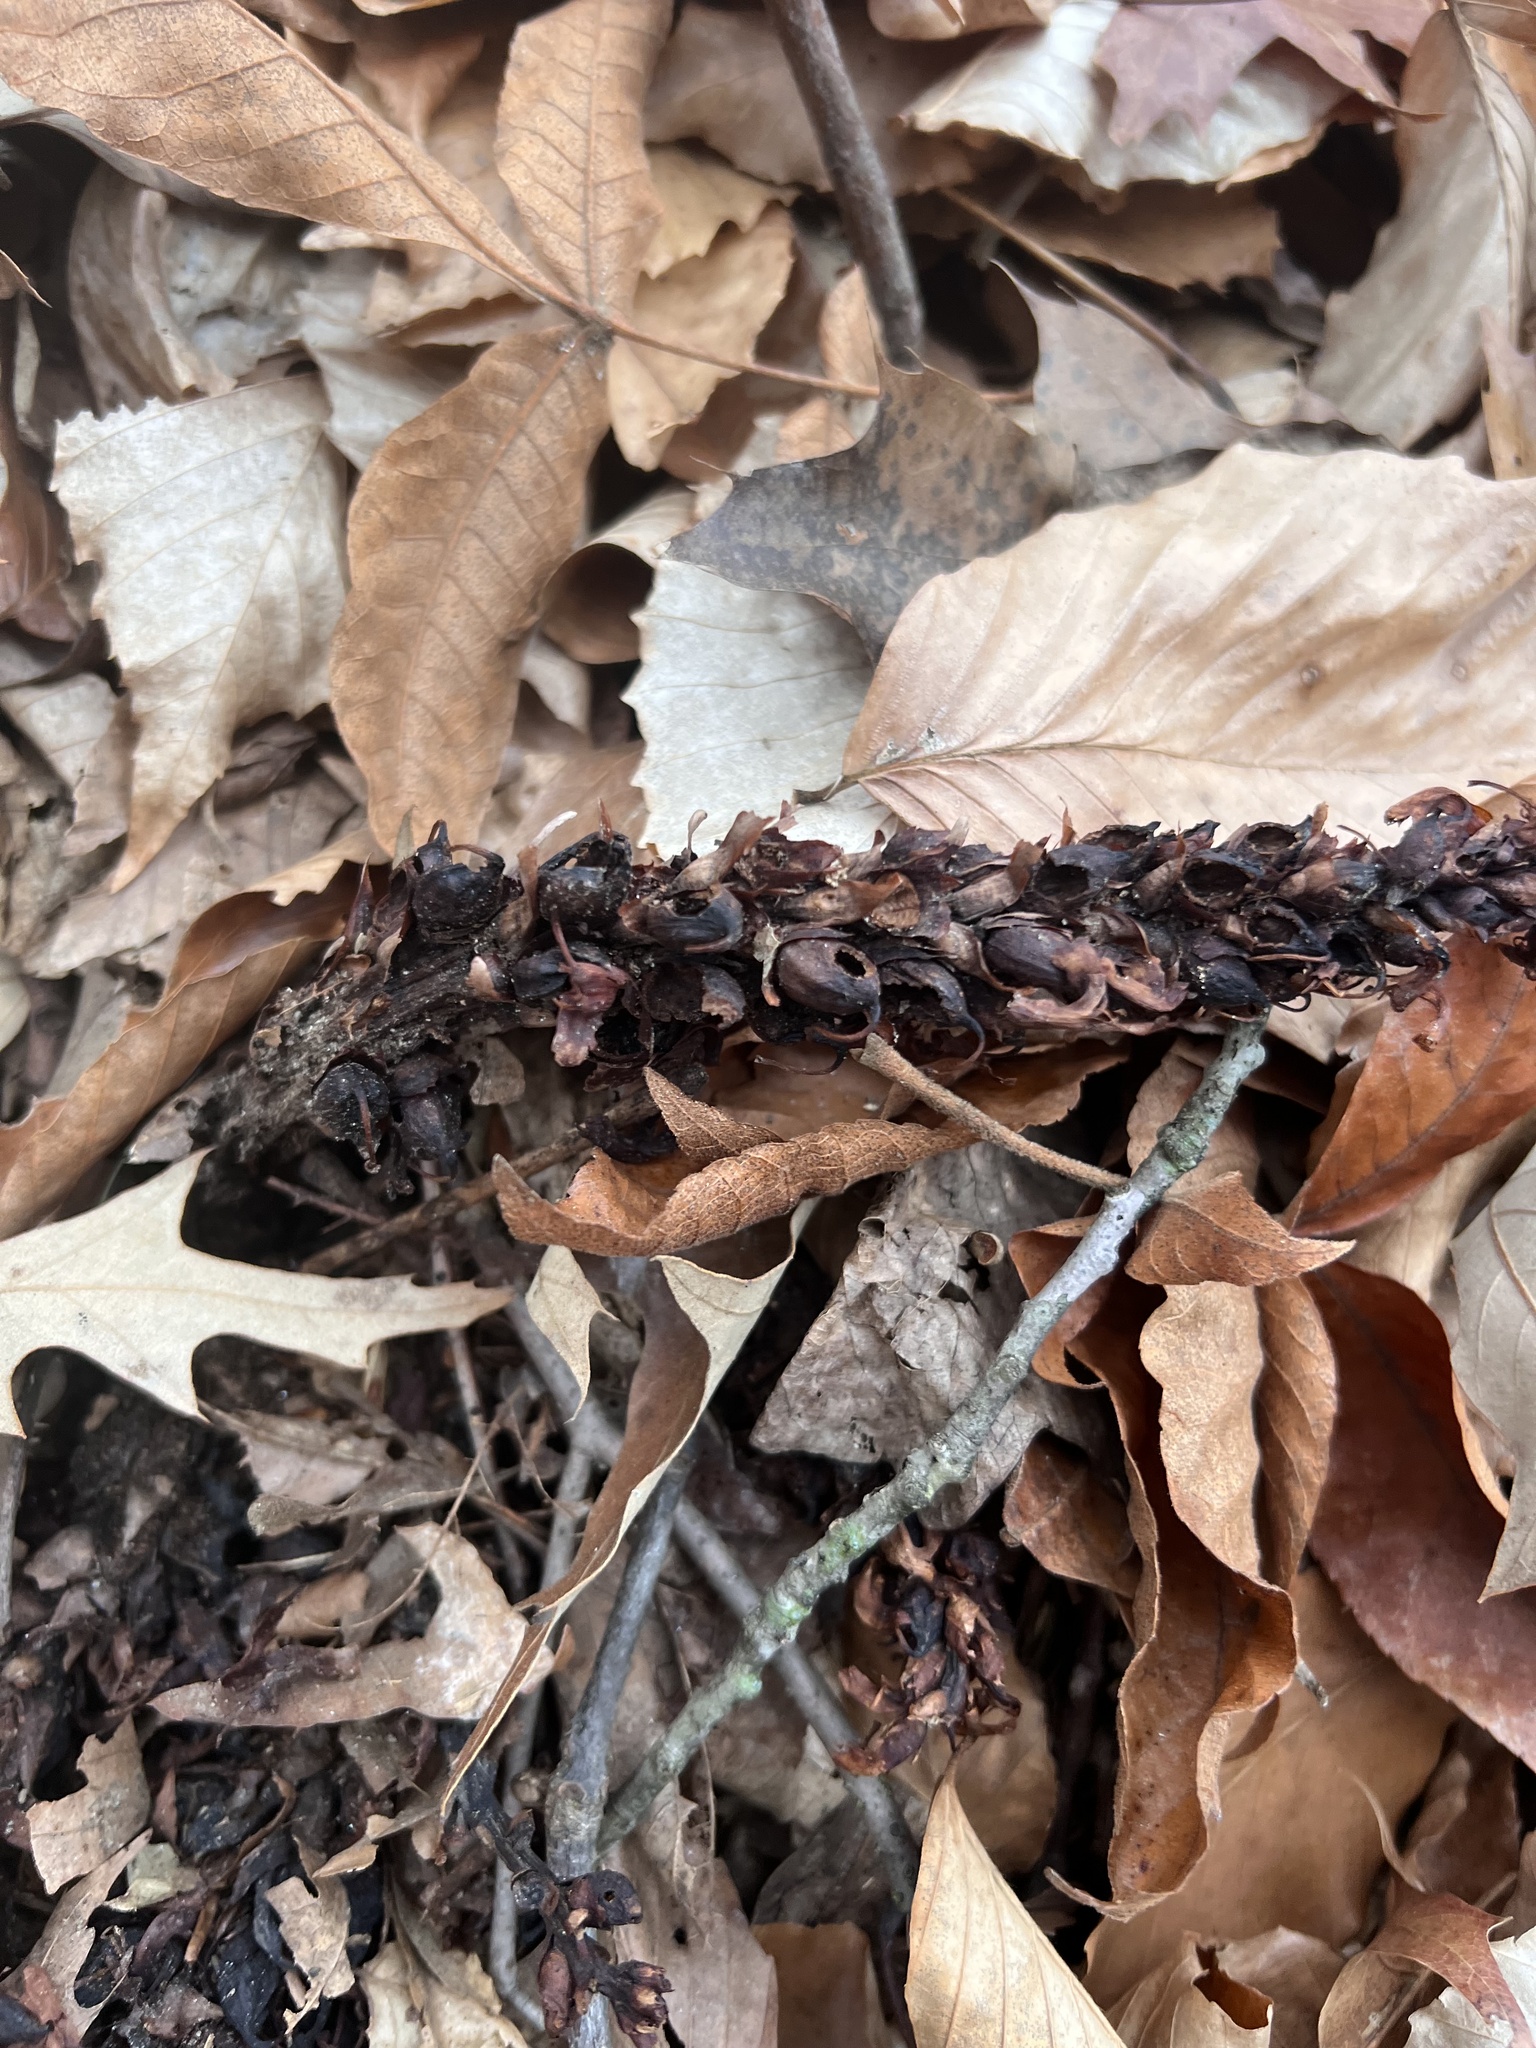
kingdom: Plantae
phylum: Tracheophyta
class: Magnoliopsida
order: Lamiales
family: Orobanchaceae
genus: Conopholis
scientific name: Conopholis americana
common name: American cancer-root
